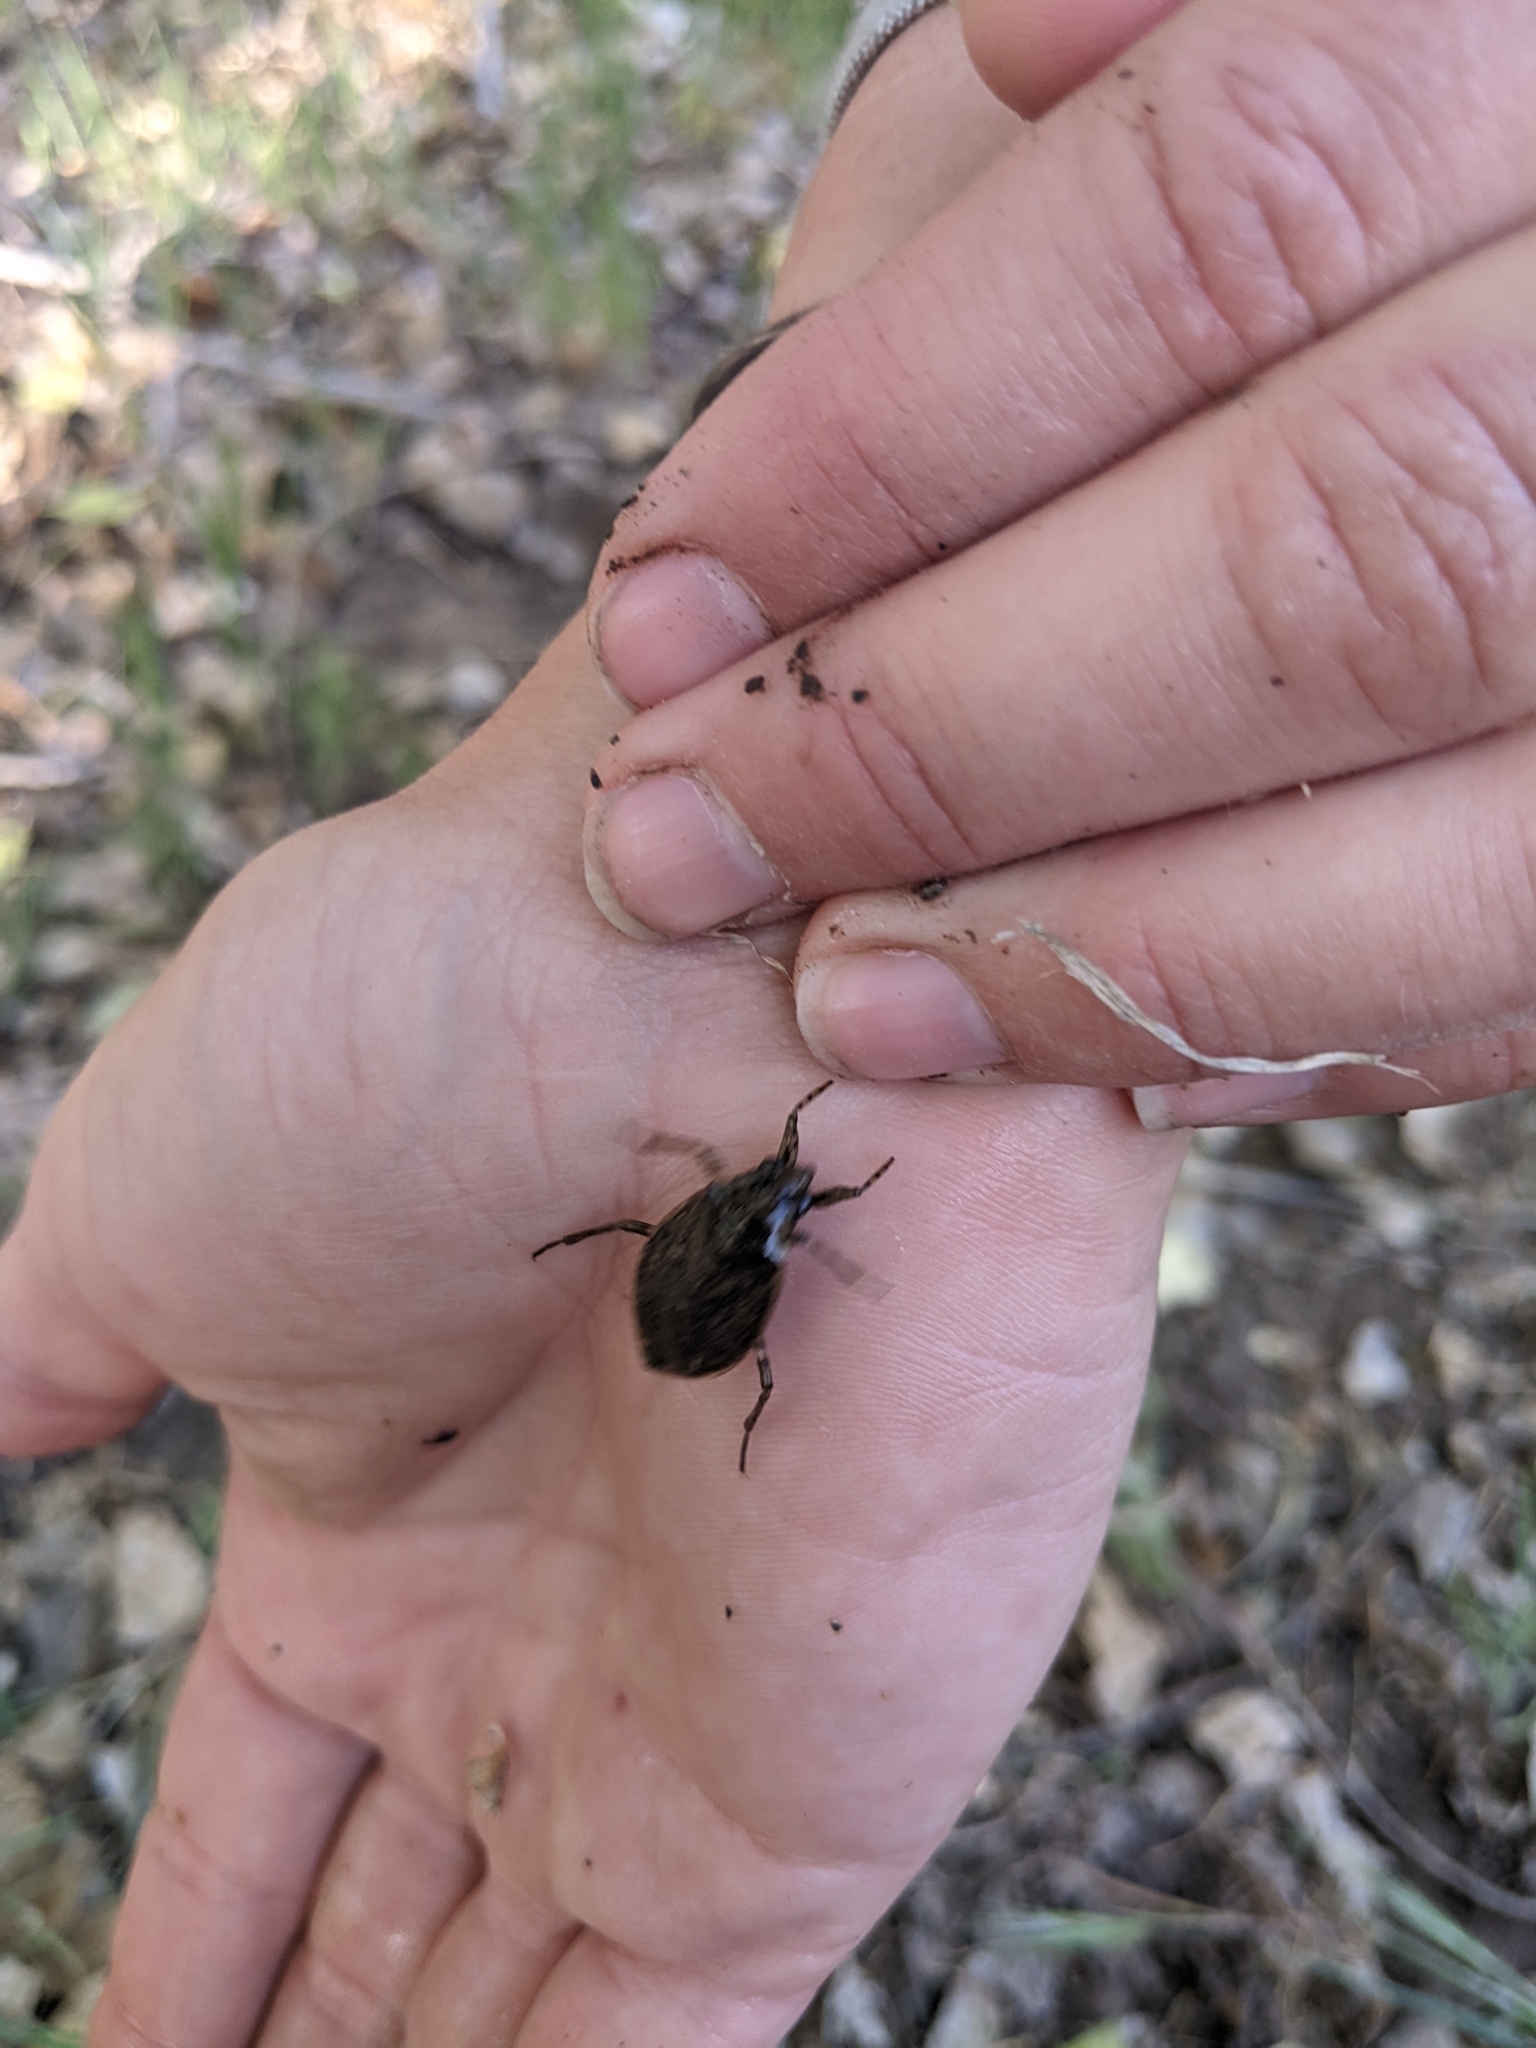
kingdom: Animalia
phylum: Arthropoda
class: Insecta
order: Hemiptera
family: Belostomatidae
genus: Belostoma
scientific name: Belostoma
